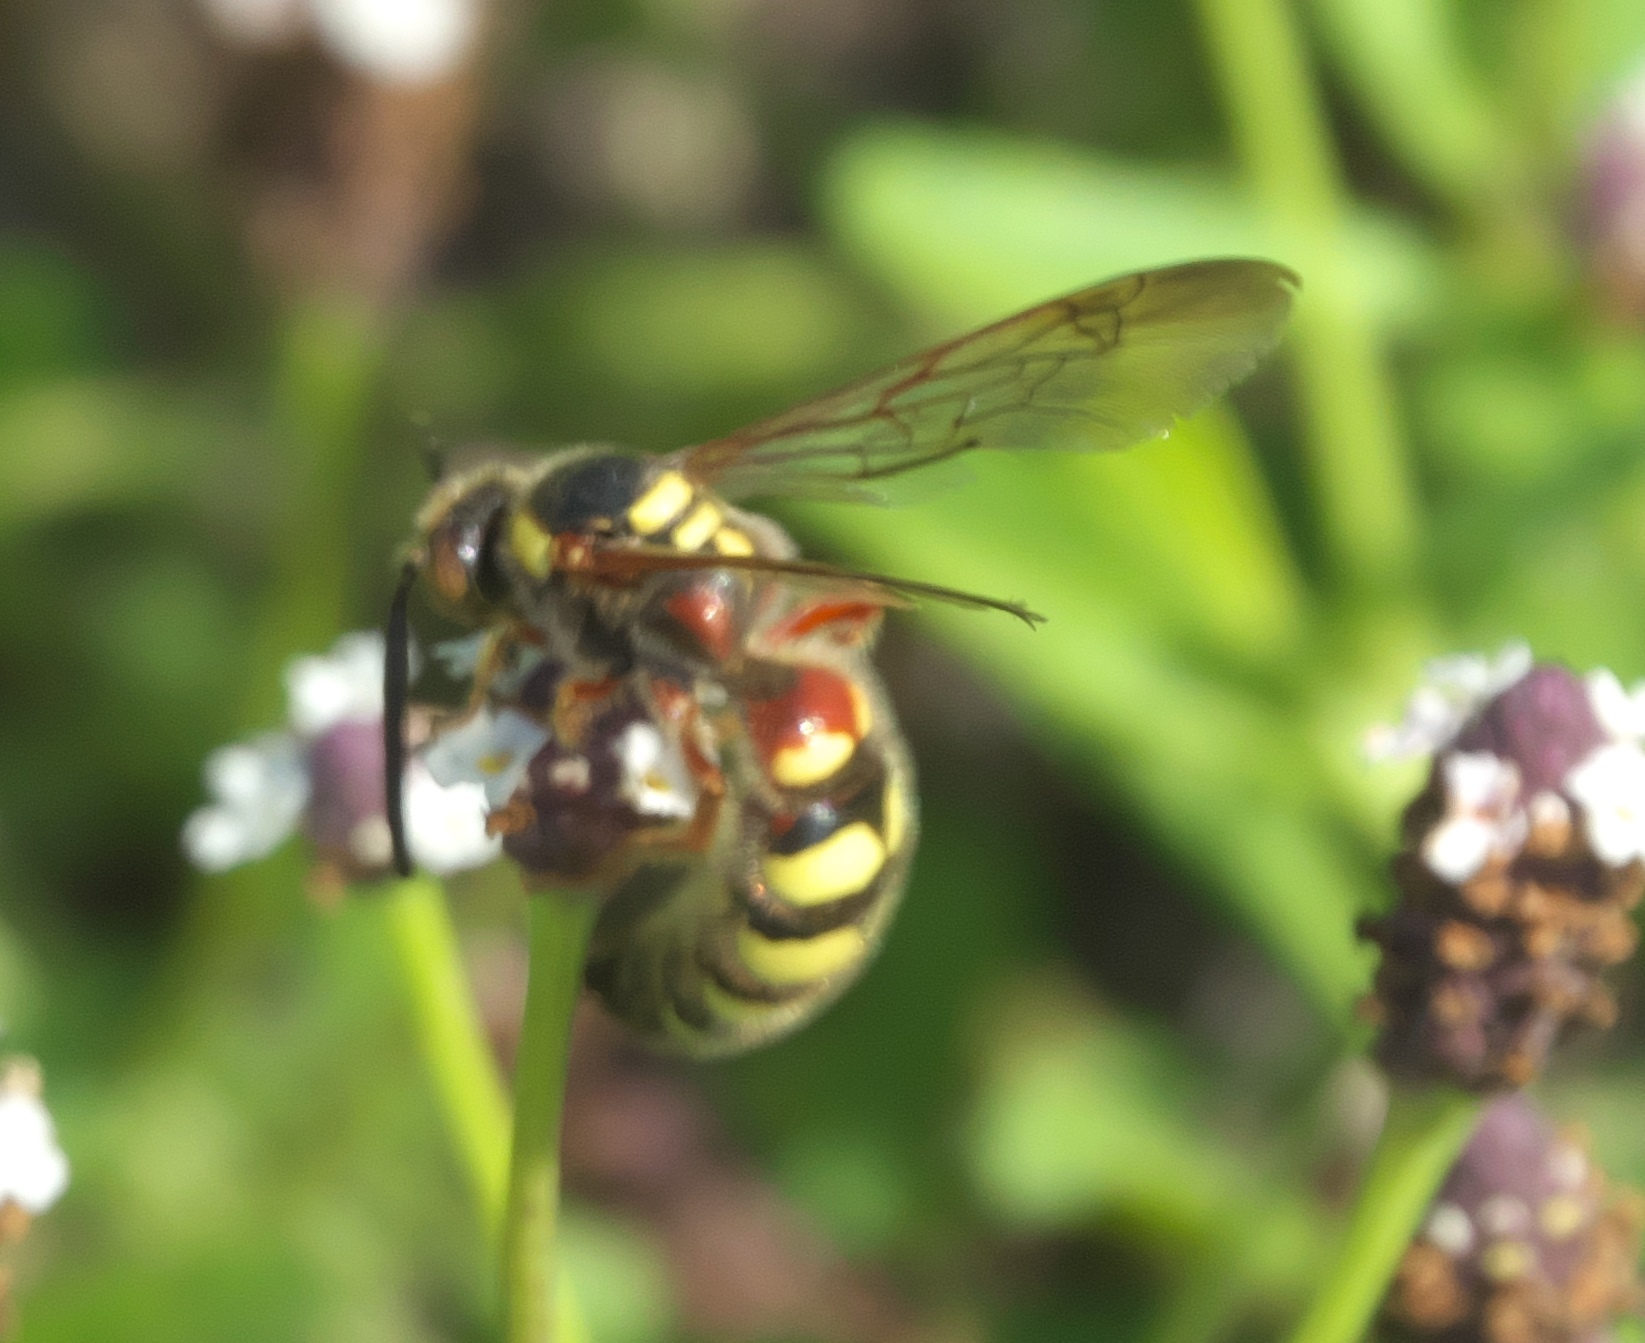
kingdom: Animalia
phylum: Arthropoda
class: Insecta
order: Hymenoptera
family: Scoliidae
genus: Colpa
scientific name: Colpa octomaculata
